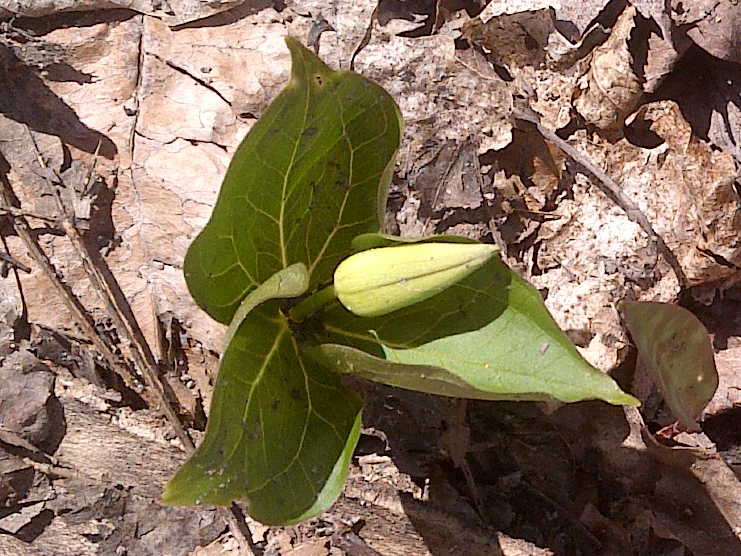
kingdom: Plantae
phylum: Tracheophyta
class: Liliopsida
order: Liliales
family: Melanthiaceae
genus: Trillium
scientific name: Trillium erectum
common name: Purple trillium
